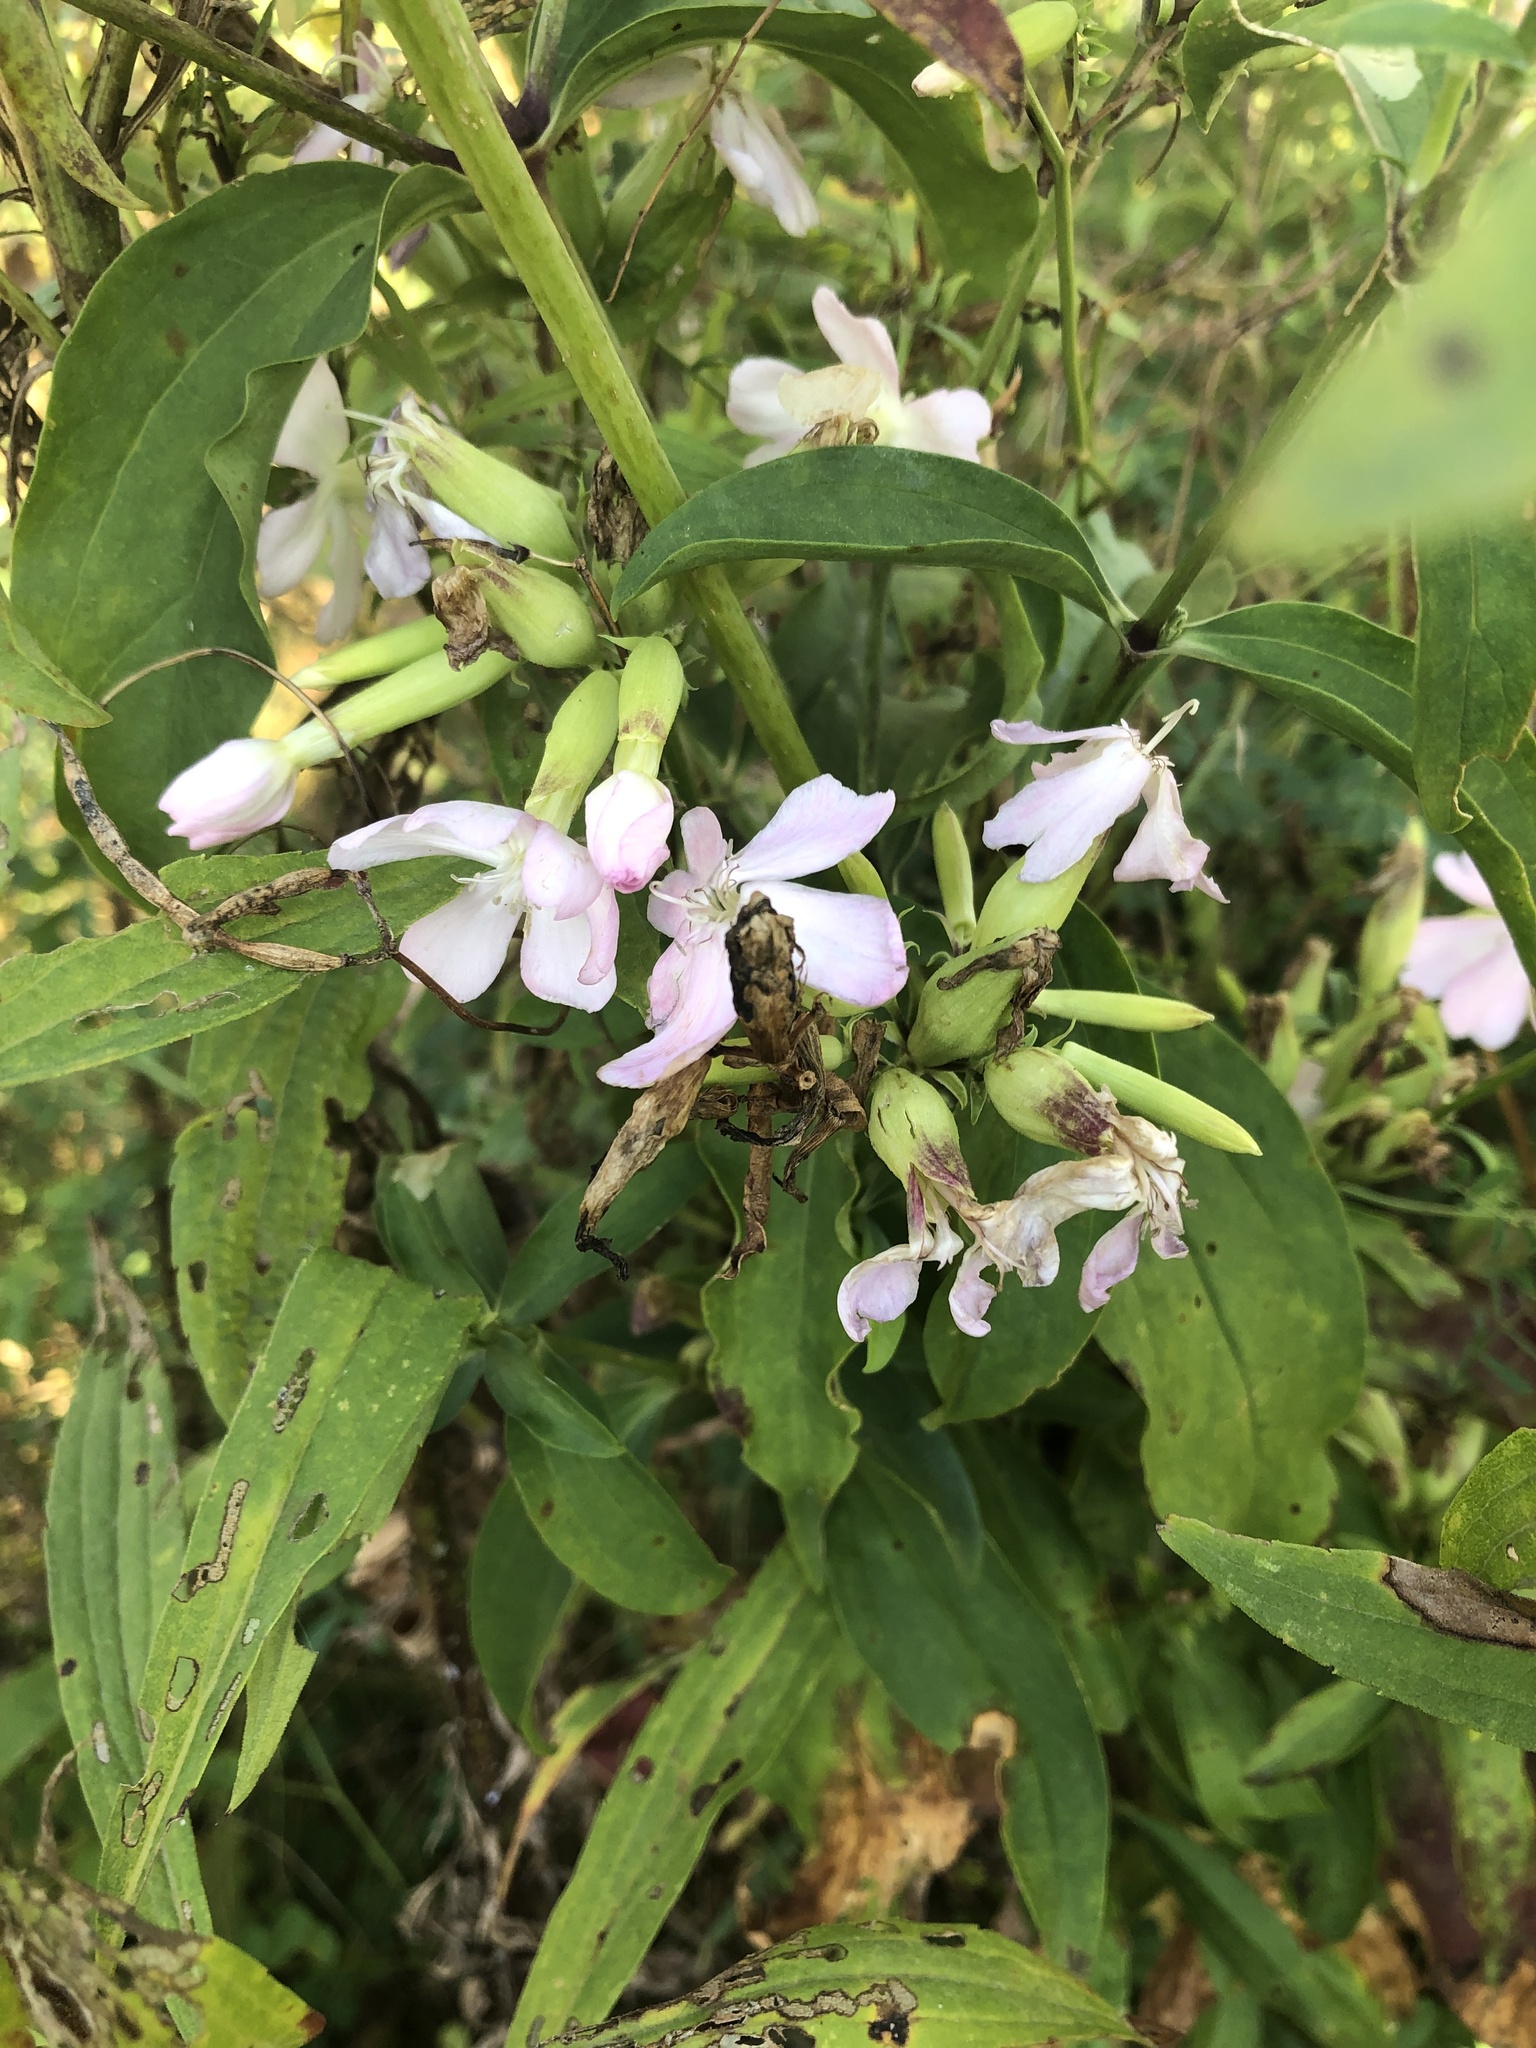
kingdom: Plantae
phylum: Tracheophyta
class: Magnoliopsida
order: Caryophyllales
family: Caryophyllaceae
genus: Saponaria
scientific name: Saponaria officinalis
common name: Soapwort
